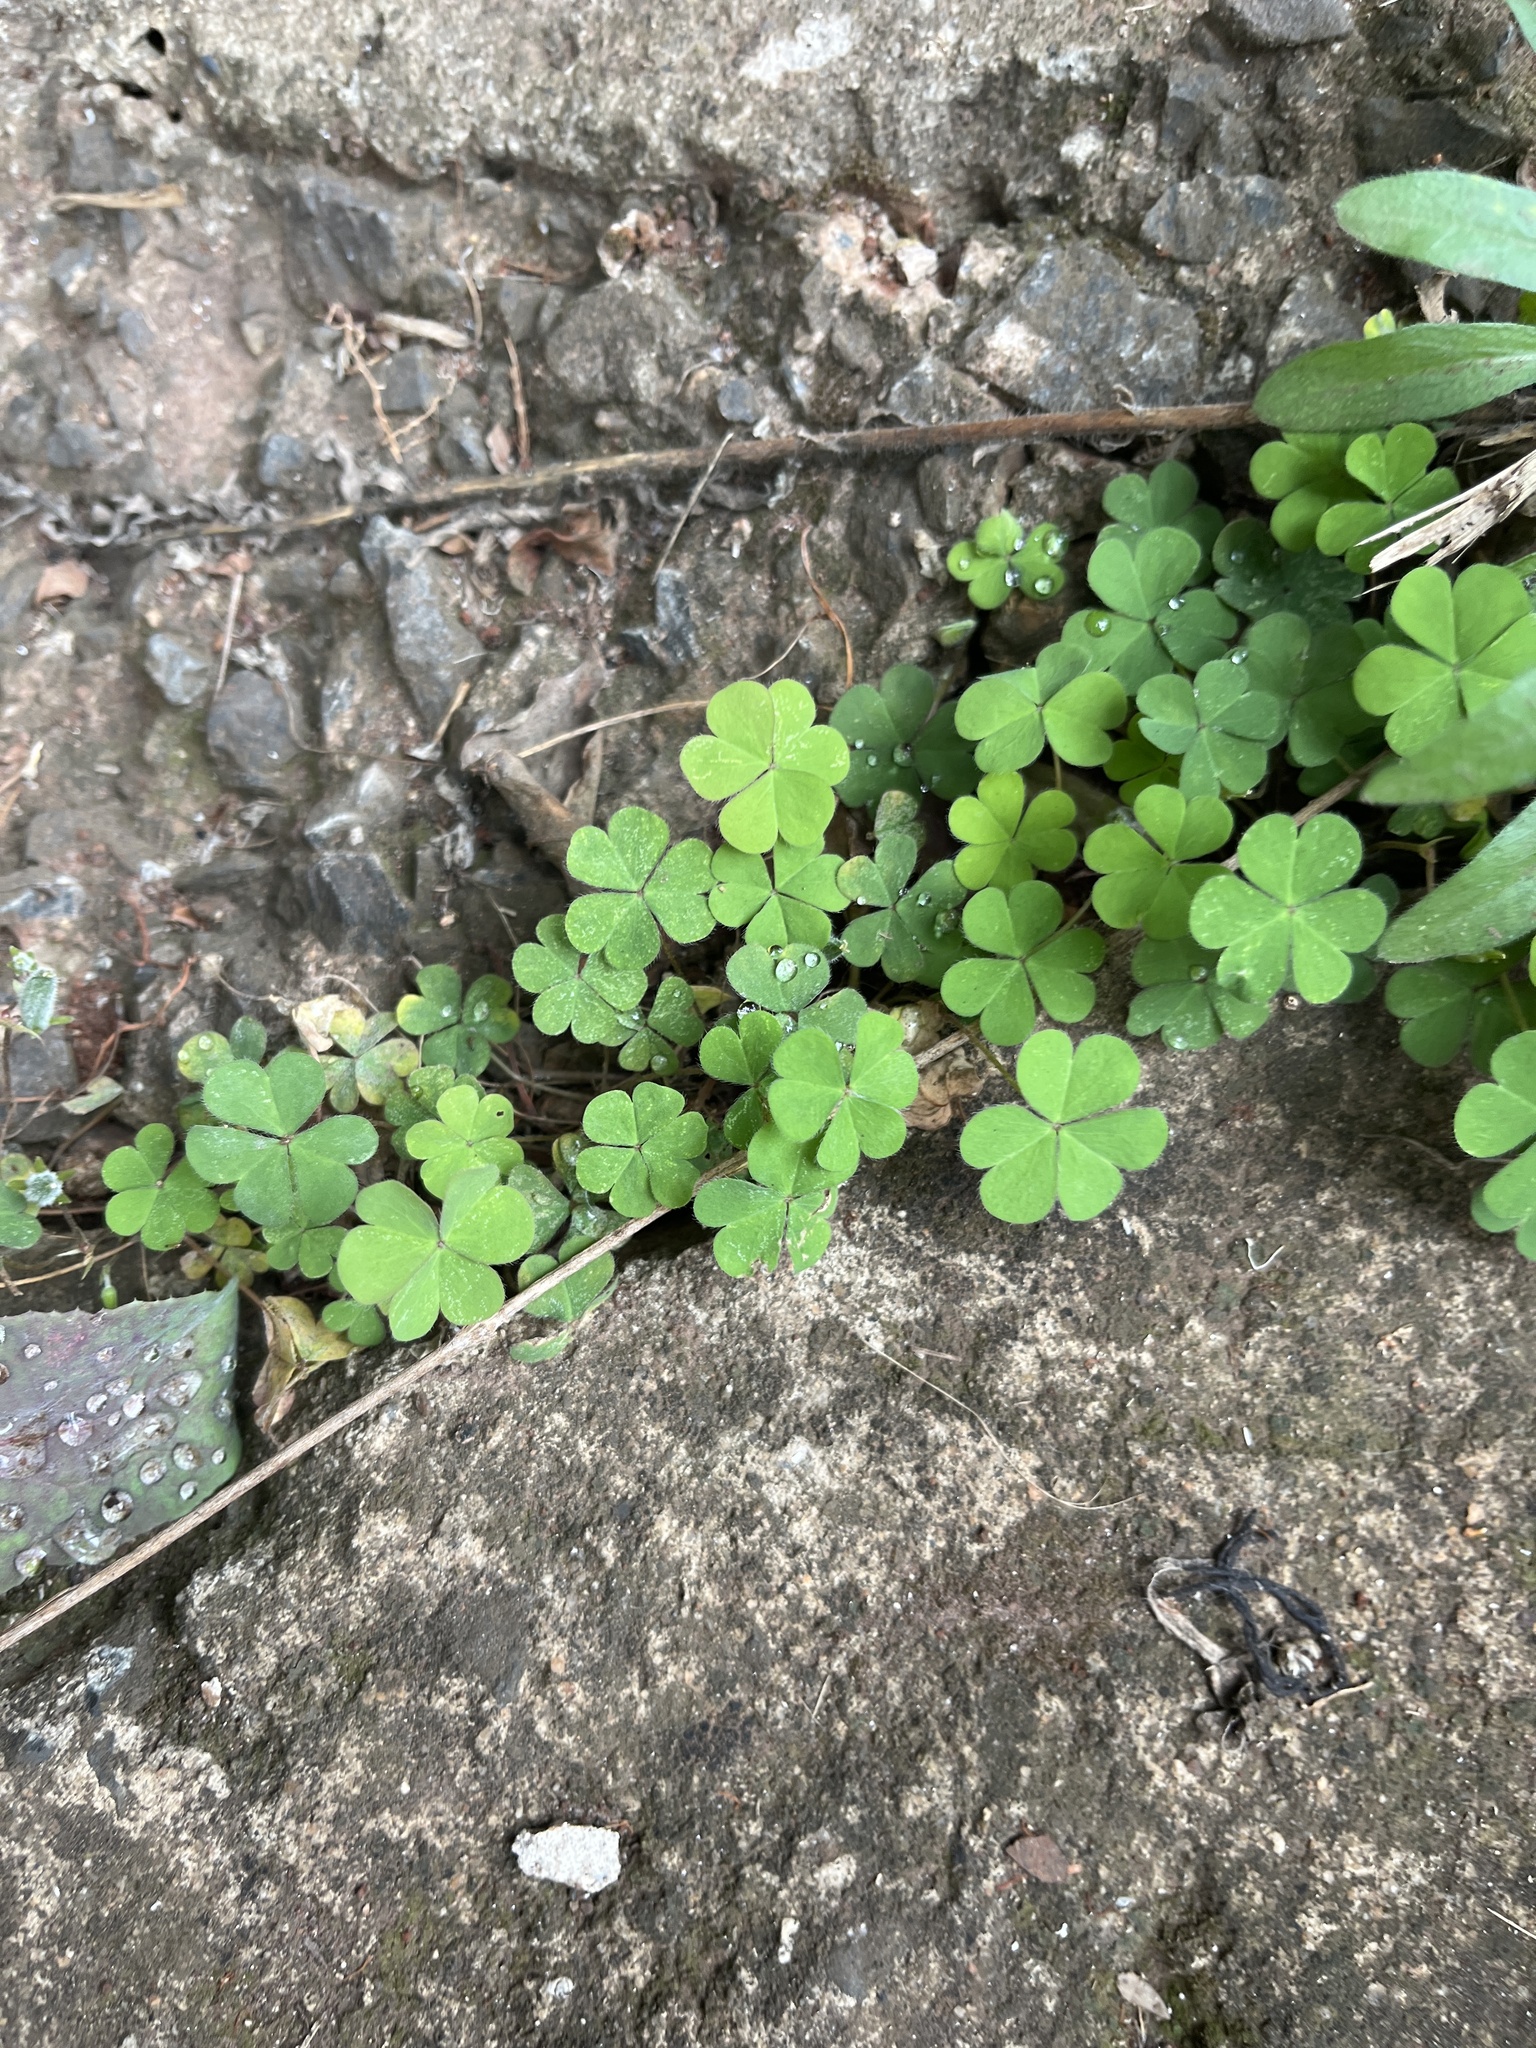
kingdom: Plantae
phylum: Tracheophyta
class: Magnoliopsida
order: Oxalidales
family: Oxalidaceae
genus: Oxalis
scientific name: Oxalis corniculata
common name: Procumbent yellow-sorrel
